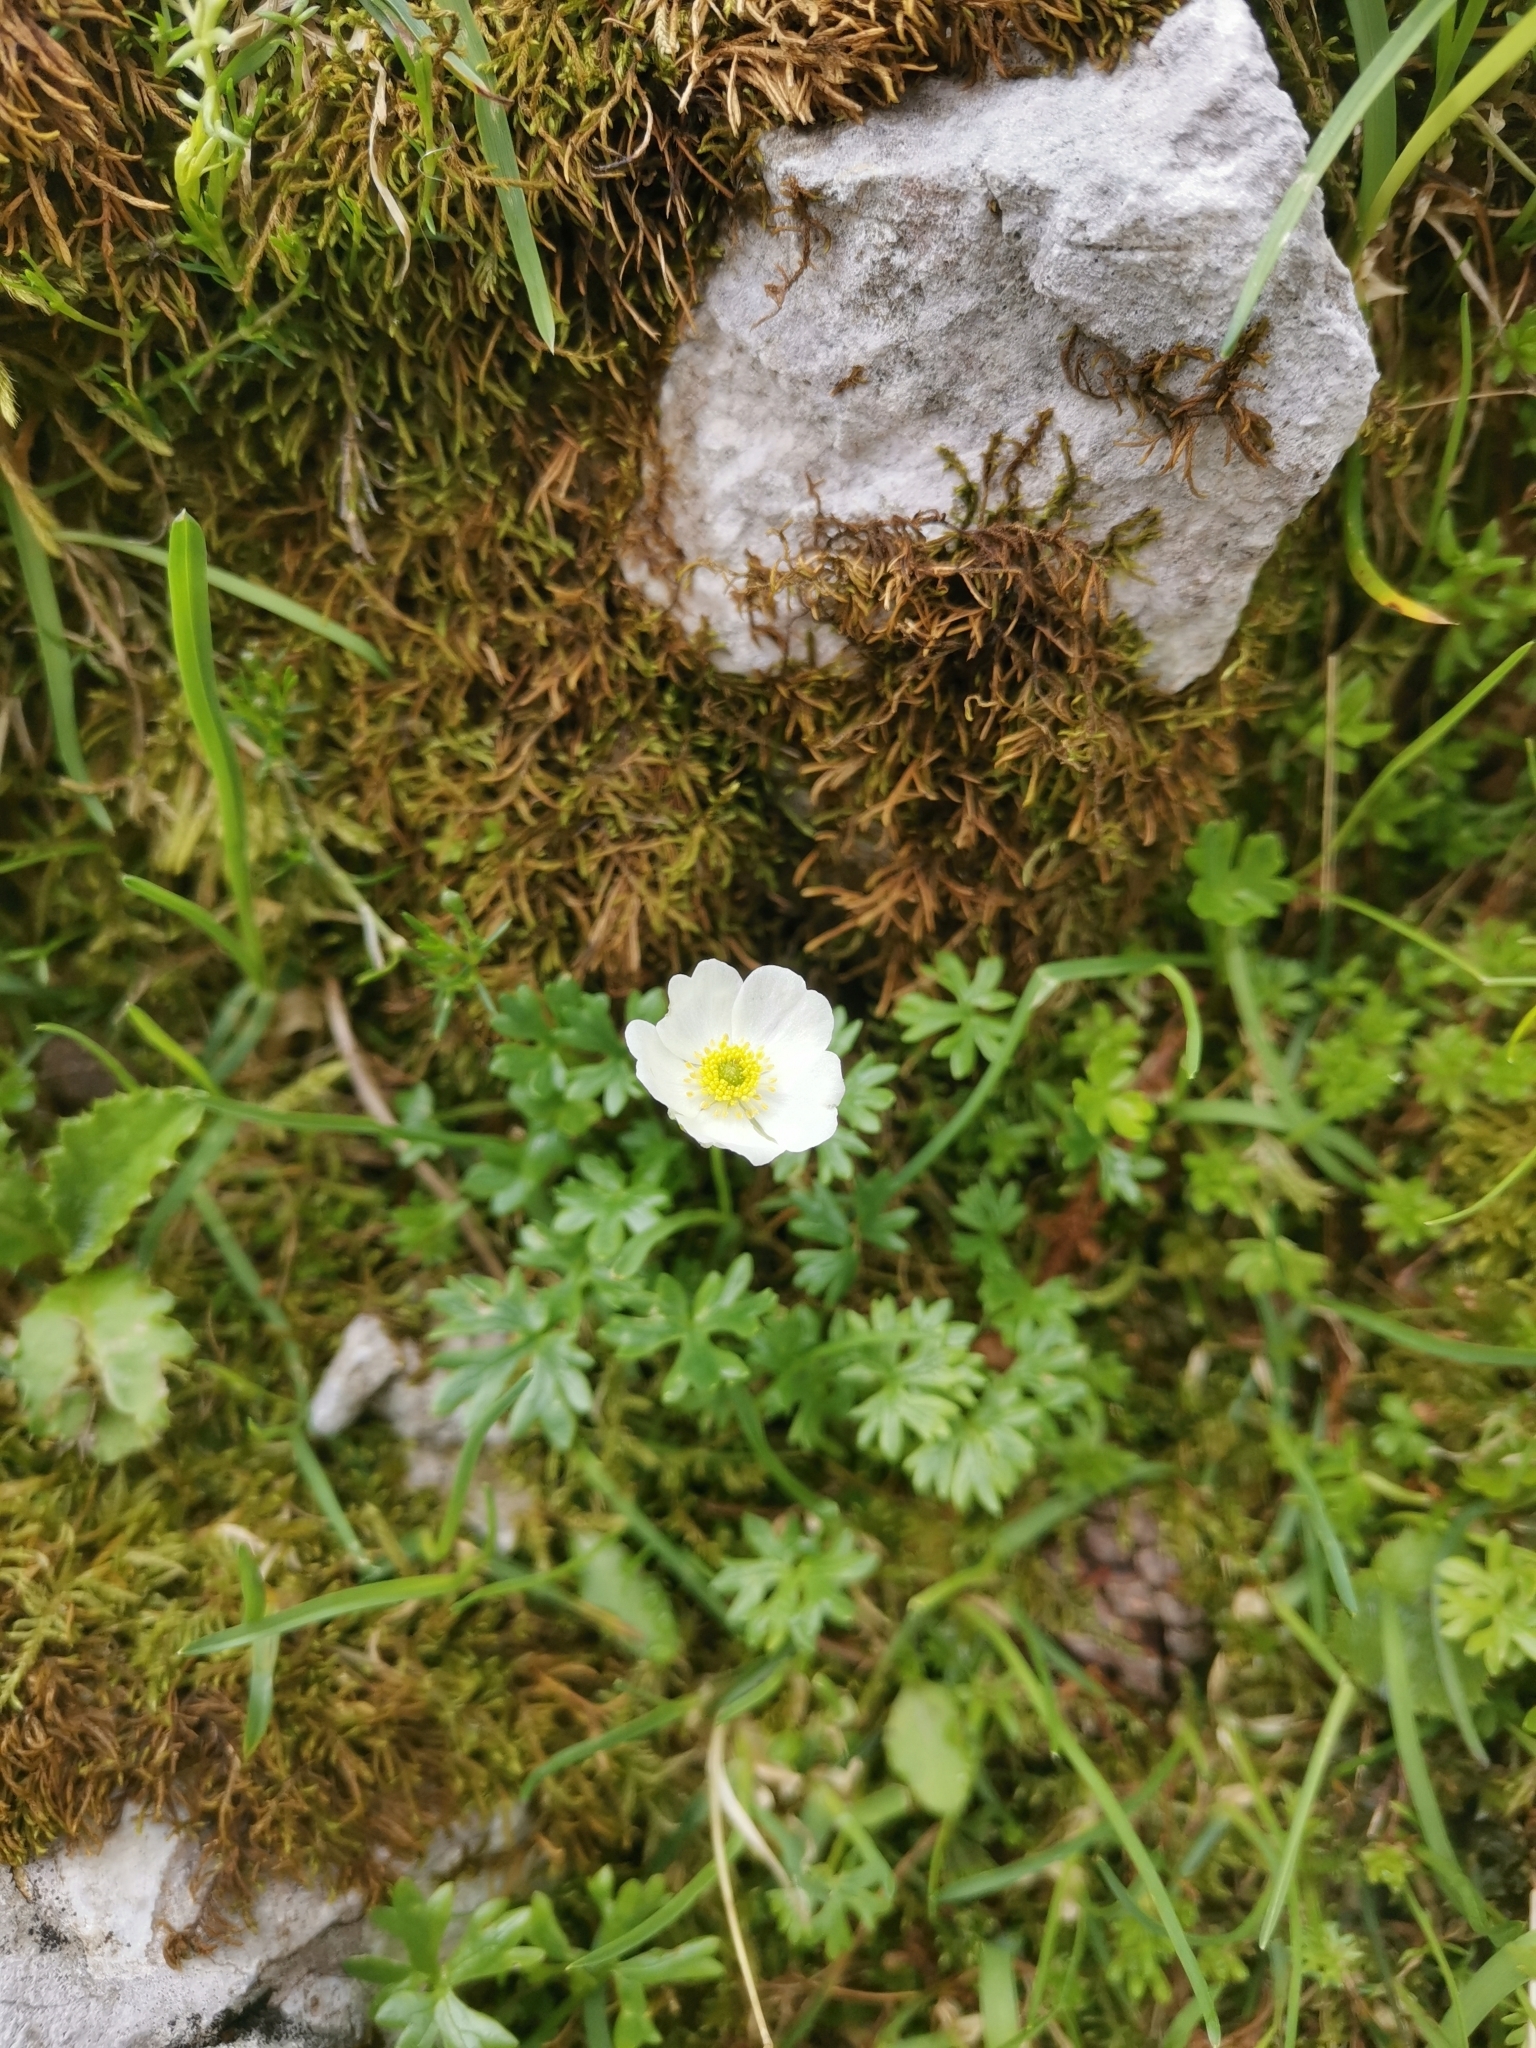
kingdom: Plantae
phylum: Tracheophyta
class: Magnoliopsida
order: Ranunculales
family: Ranunculaceae
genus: Ranunculus
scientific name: Ranunculus traunfellneri
